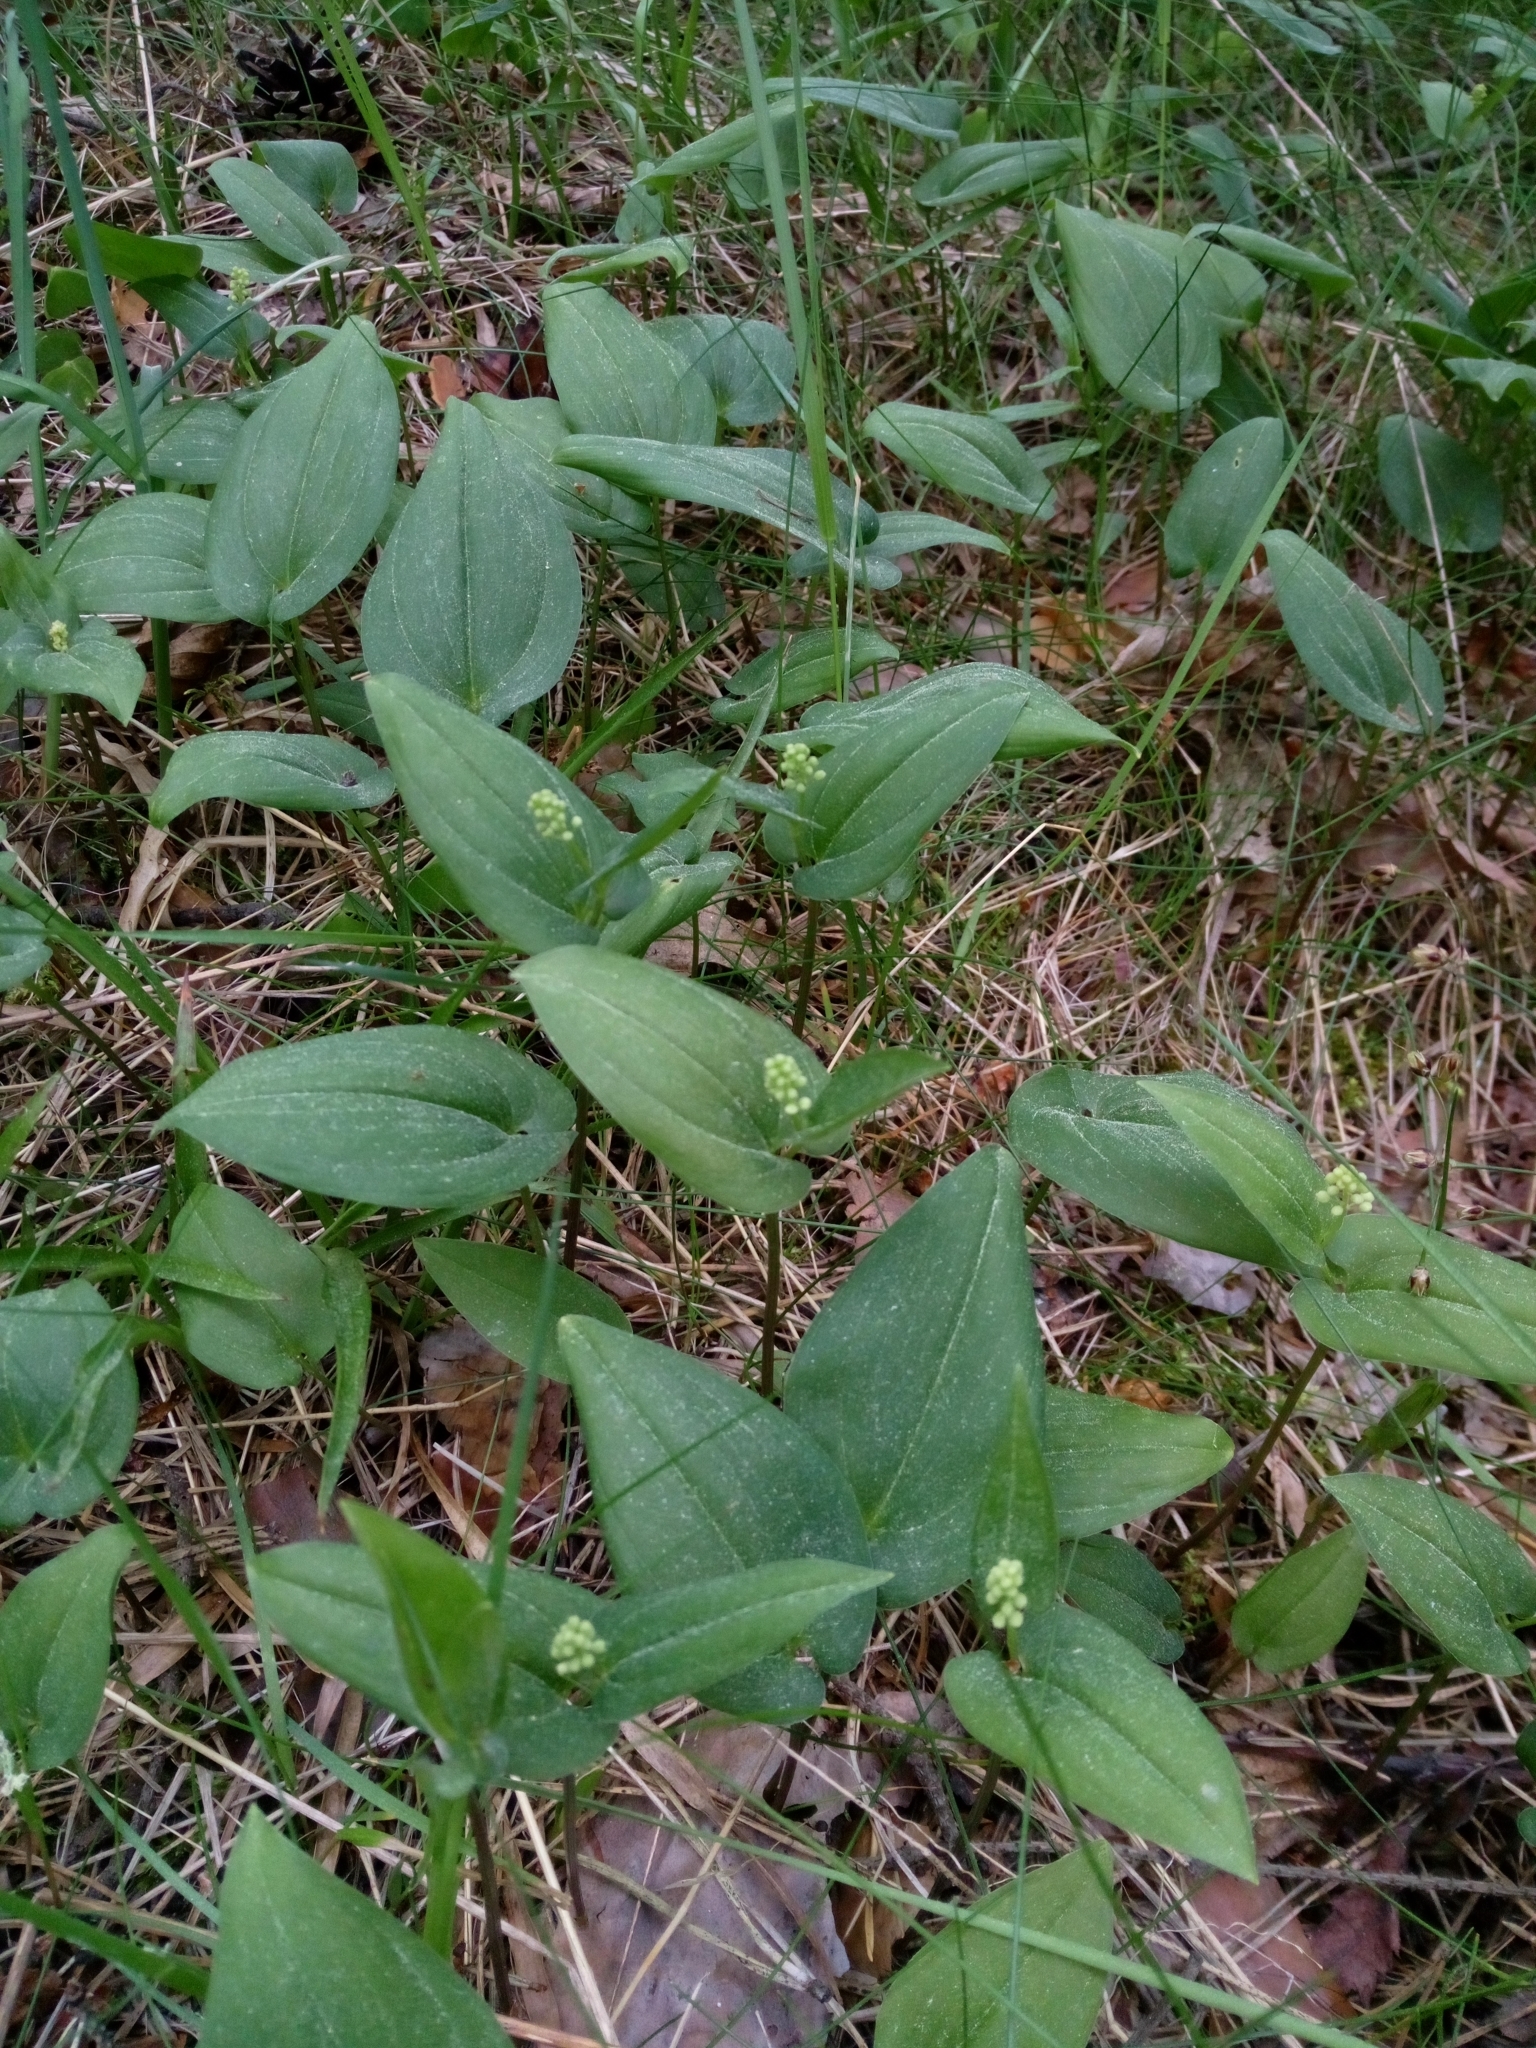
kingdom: Plantae
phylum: Tracheophyta
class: Liliopsida
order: Asparagales
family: Asparagaceae
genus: Maianthemum
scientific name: Maianthemum bifolium
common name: May lily
